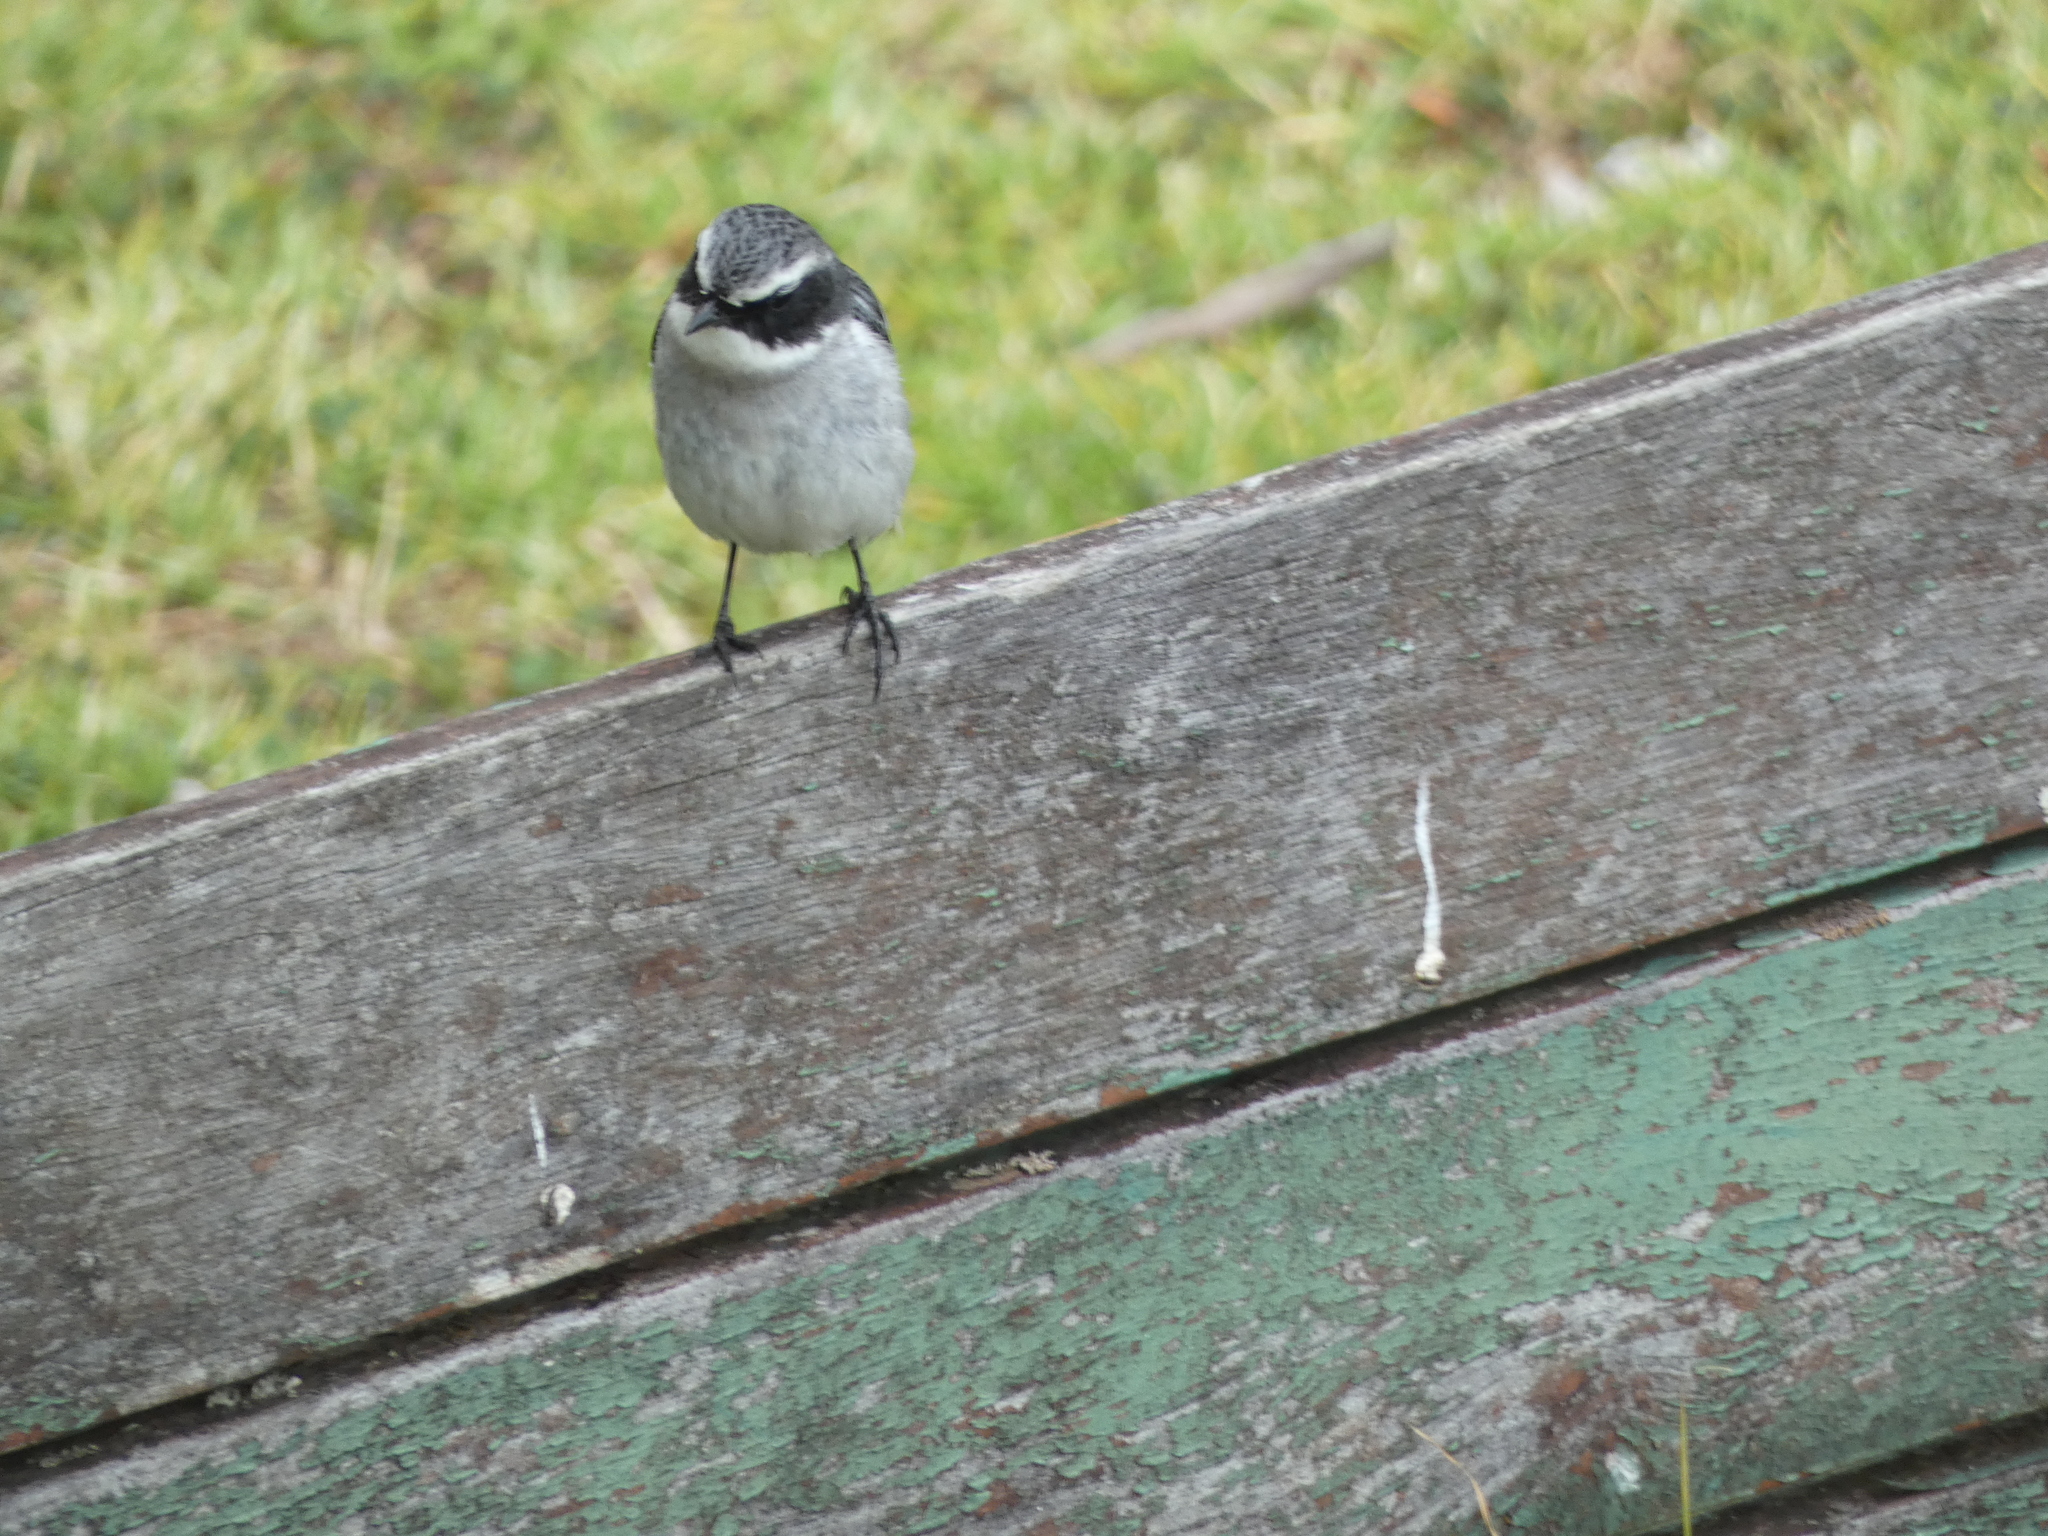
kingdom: Animalia
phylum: Chordata
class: Aves
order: Passeriformes
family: Muscicapidae
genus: Saxicola
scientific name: Saxicola ferreus
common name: Grey bush chat
